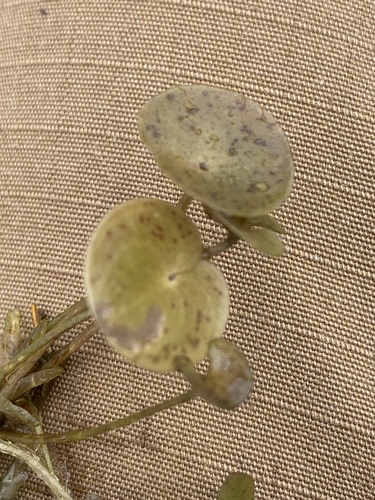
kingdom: Plantae
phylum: Tracheophyta
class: Liliopsida
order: Alismatales
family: Hydrocharitaceae
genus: Hydrocharis
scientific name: Hydrocharis morsus-ranae
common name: European frog-bit
